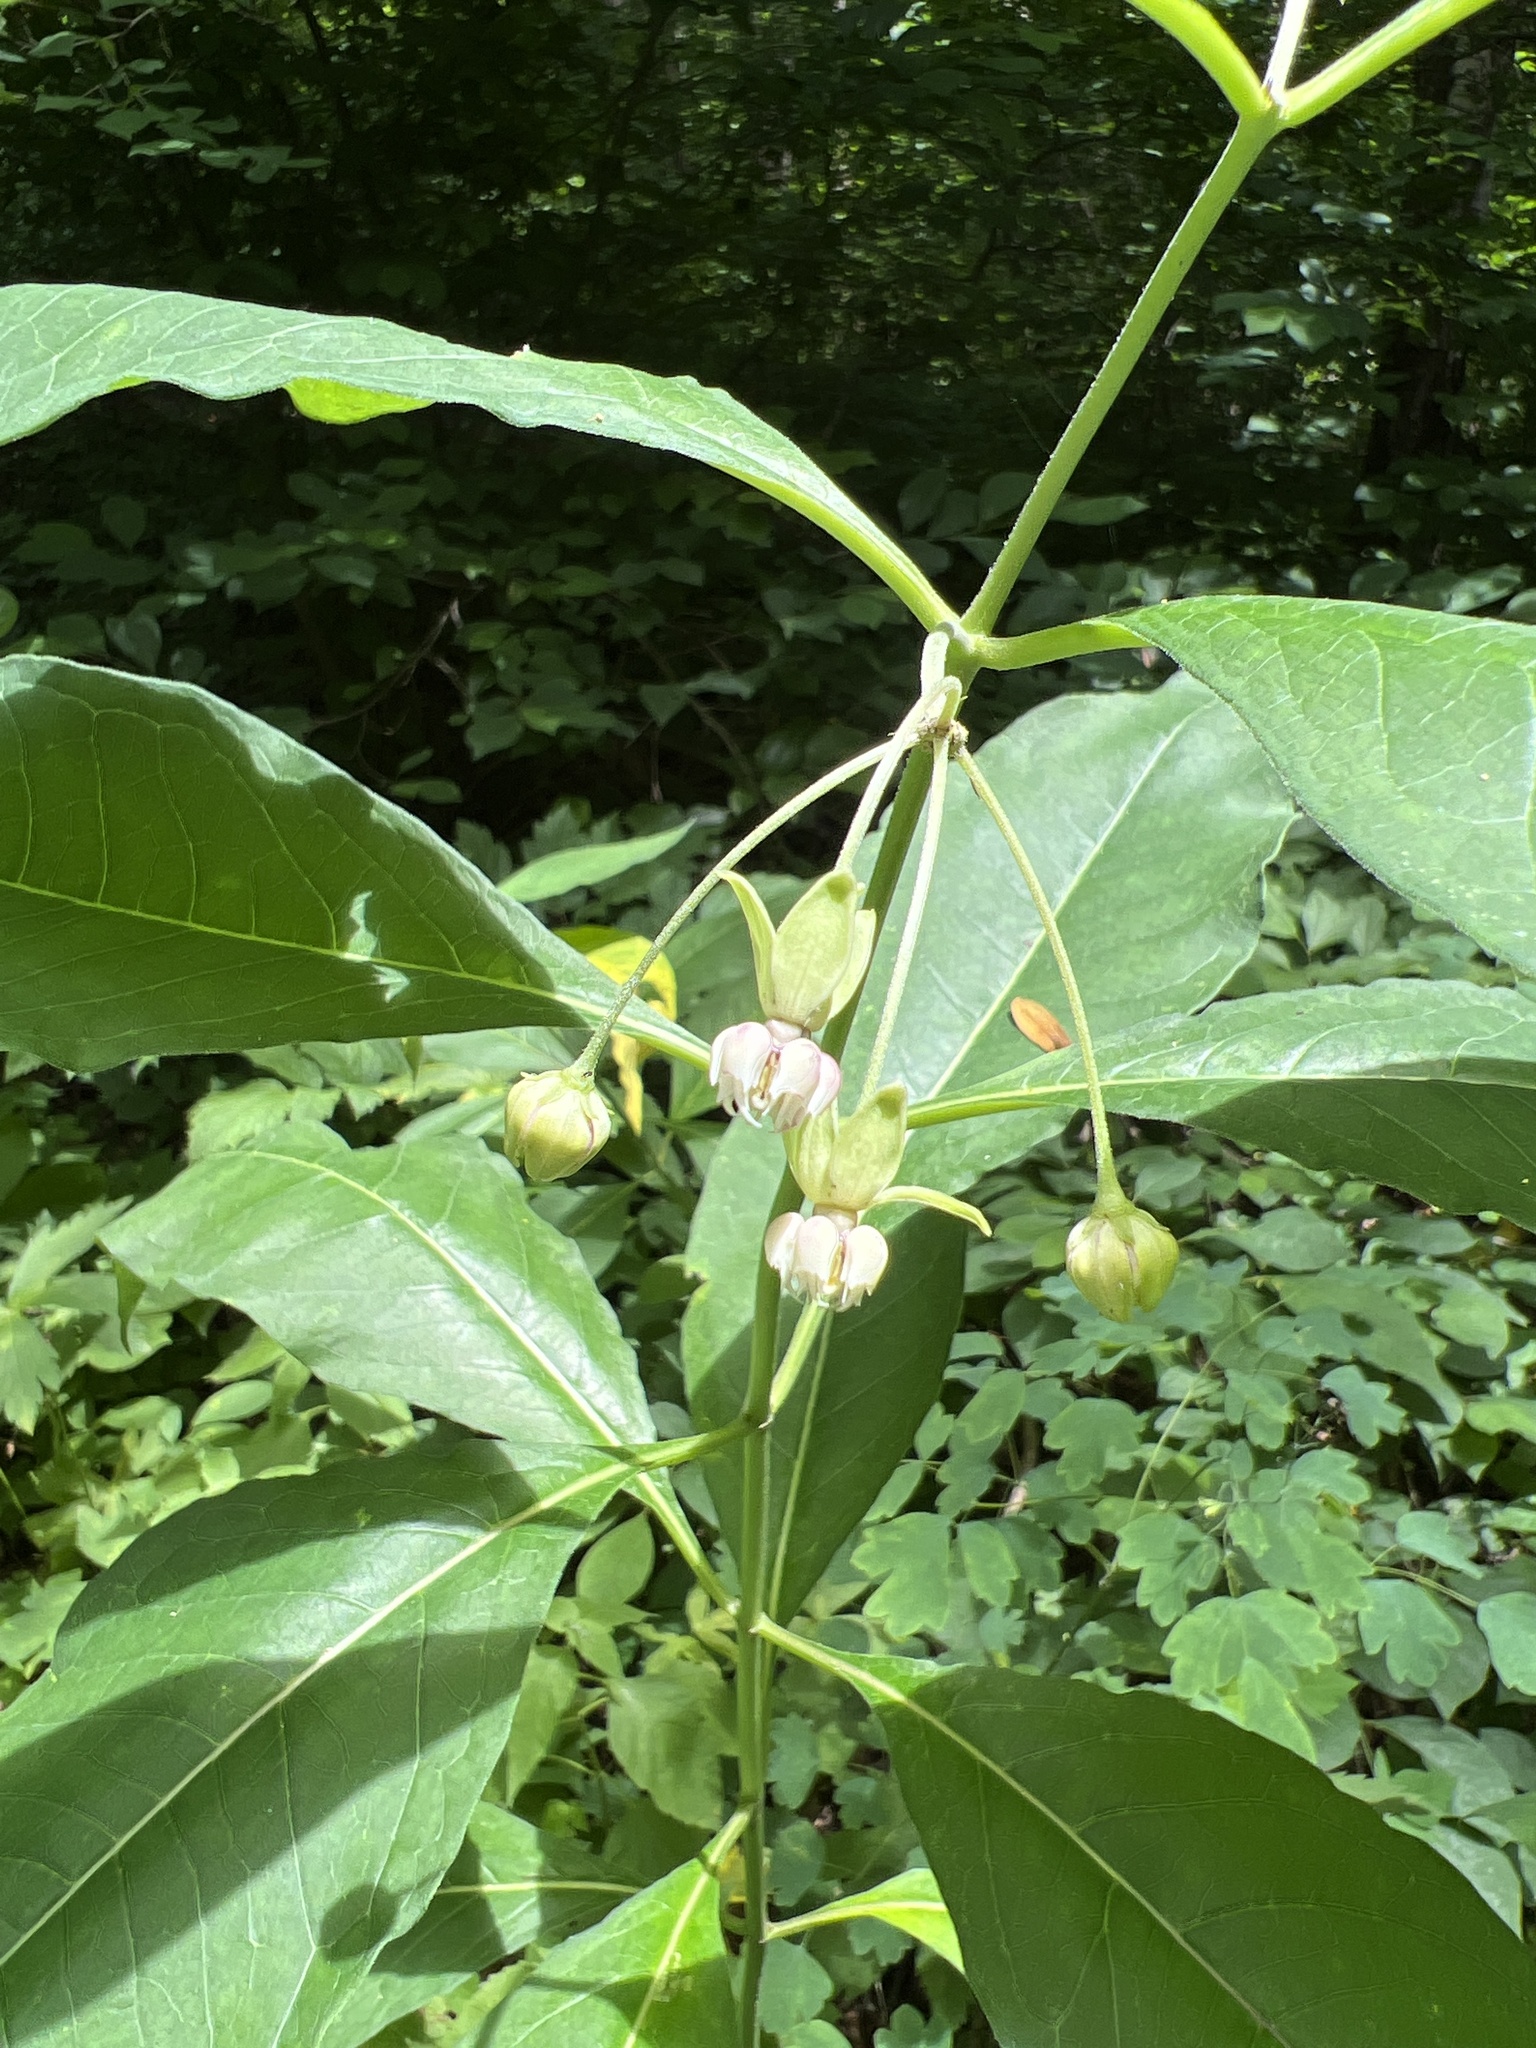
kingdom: Plantae
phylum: Tracheophyta
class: Magnoliopsida
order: Gentianales
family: Apocynaceae
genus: Asclepias
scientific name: Asclepias exaltata
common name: Poke milkweed
